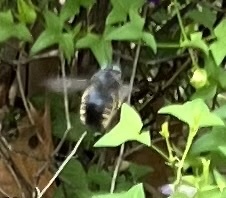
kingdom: Animalia
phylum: Arthropoda
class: Insecta
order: Hymenoptera
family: Apidae
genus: Xylocopa
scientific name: Xylocopa tabaniformis
